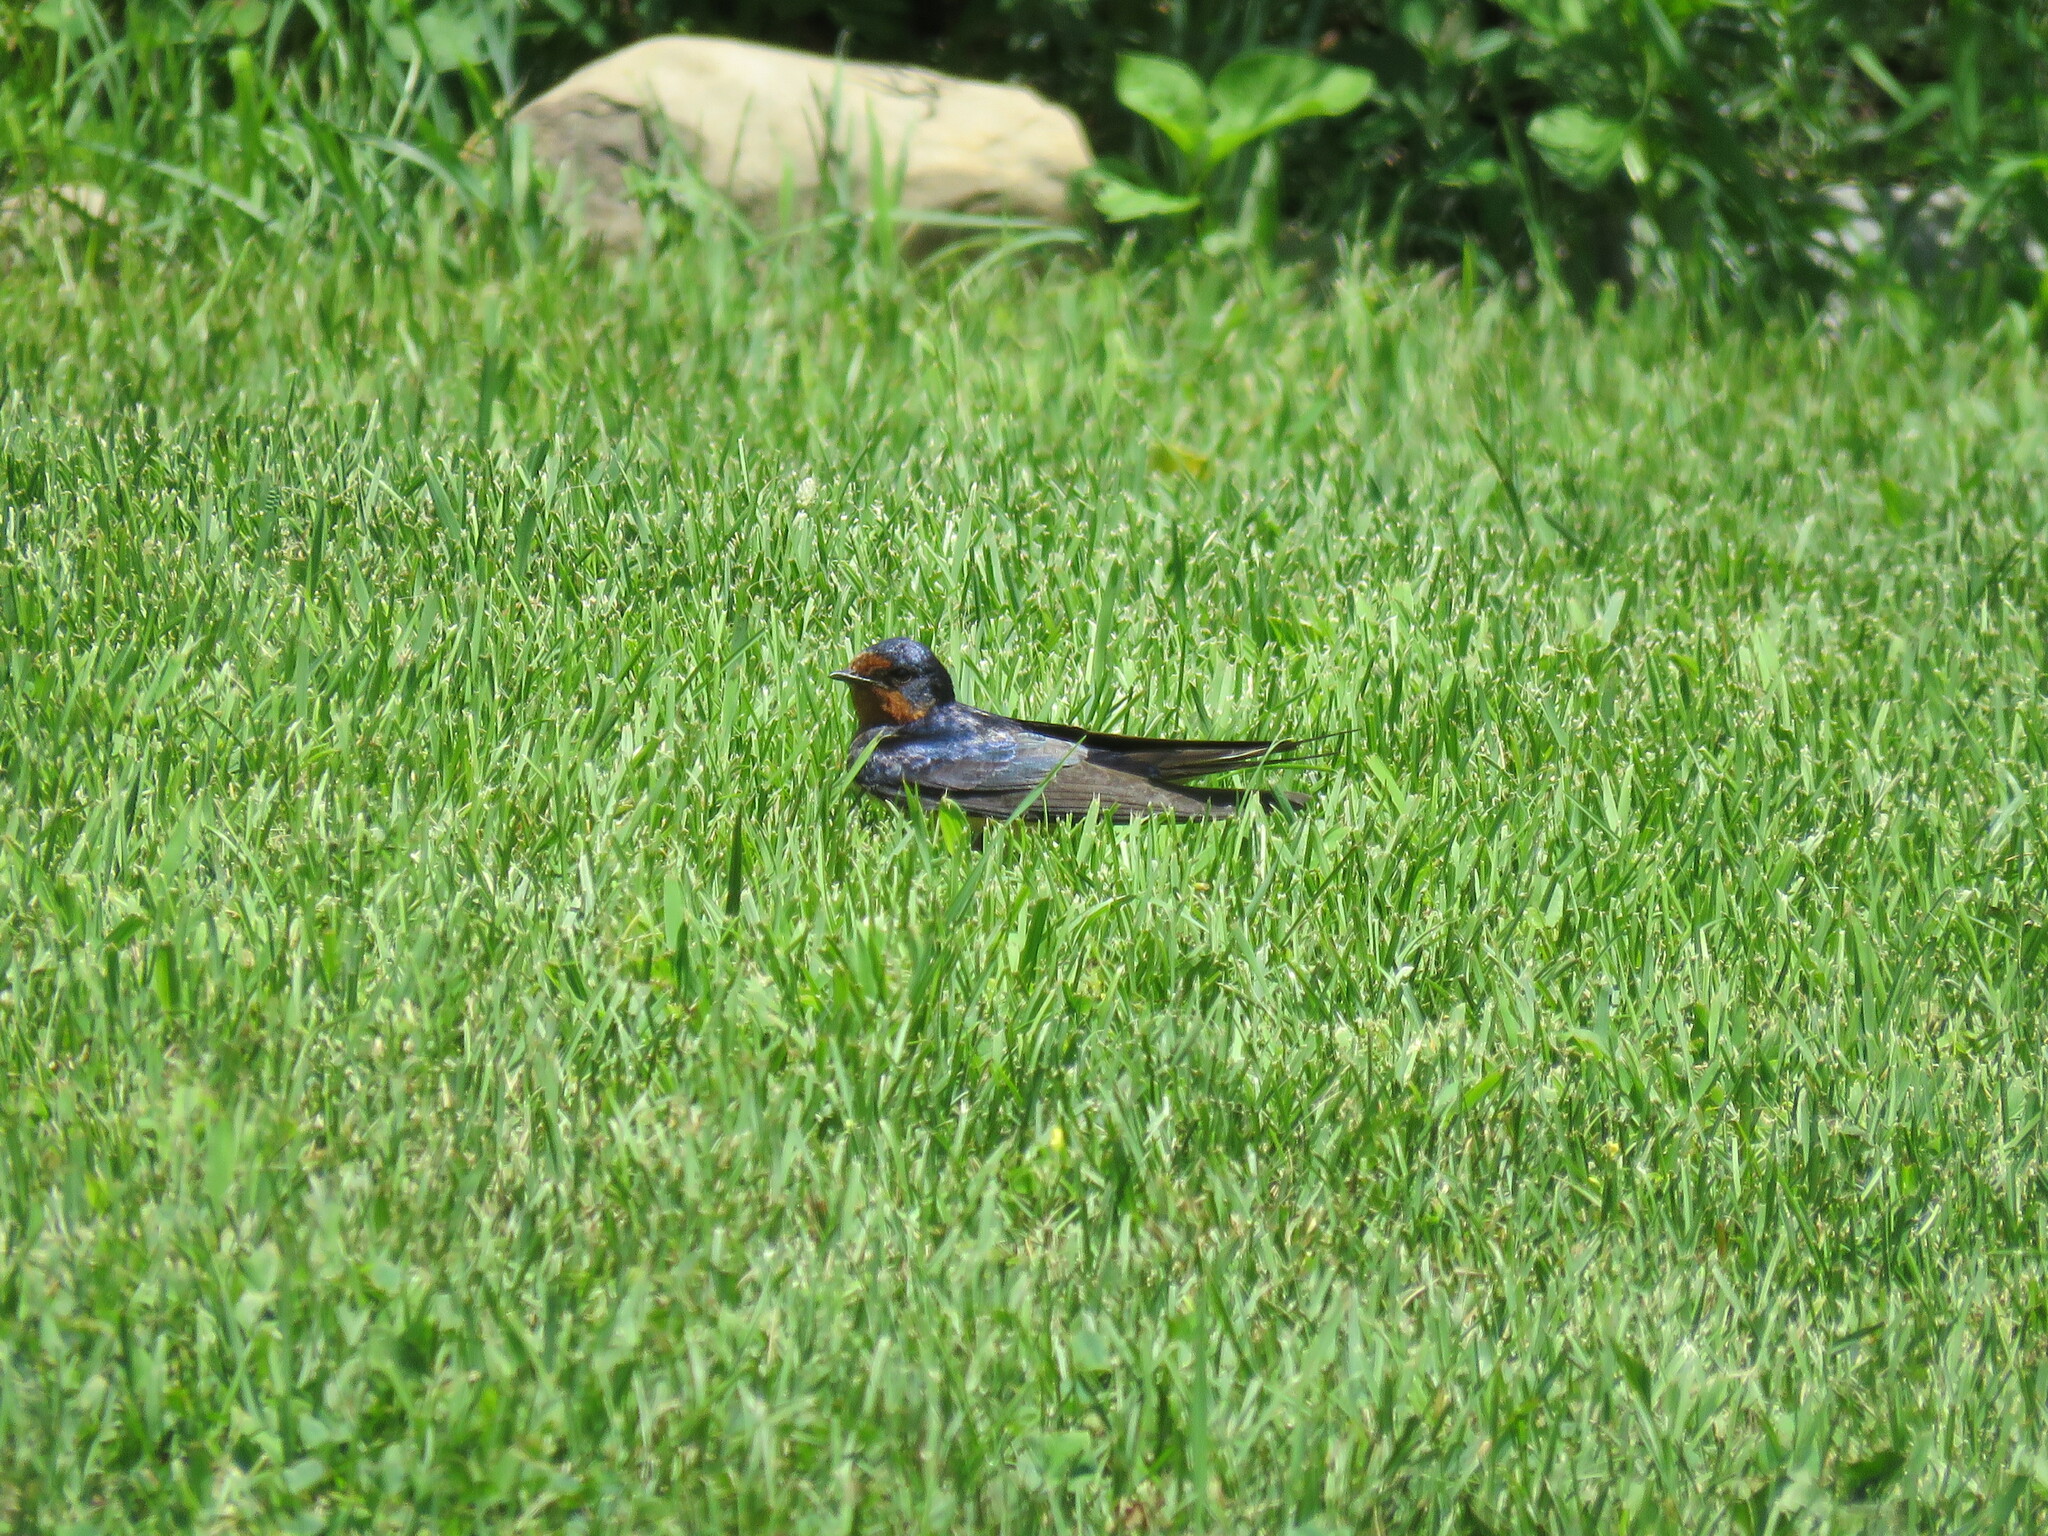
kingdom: Animalia
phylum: Chordata
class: Aves
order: Passeriformes
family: Hirundinidae
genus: Hirundo
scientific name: Hirundo rustica
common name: Barn swallow
